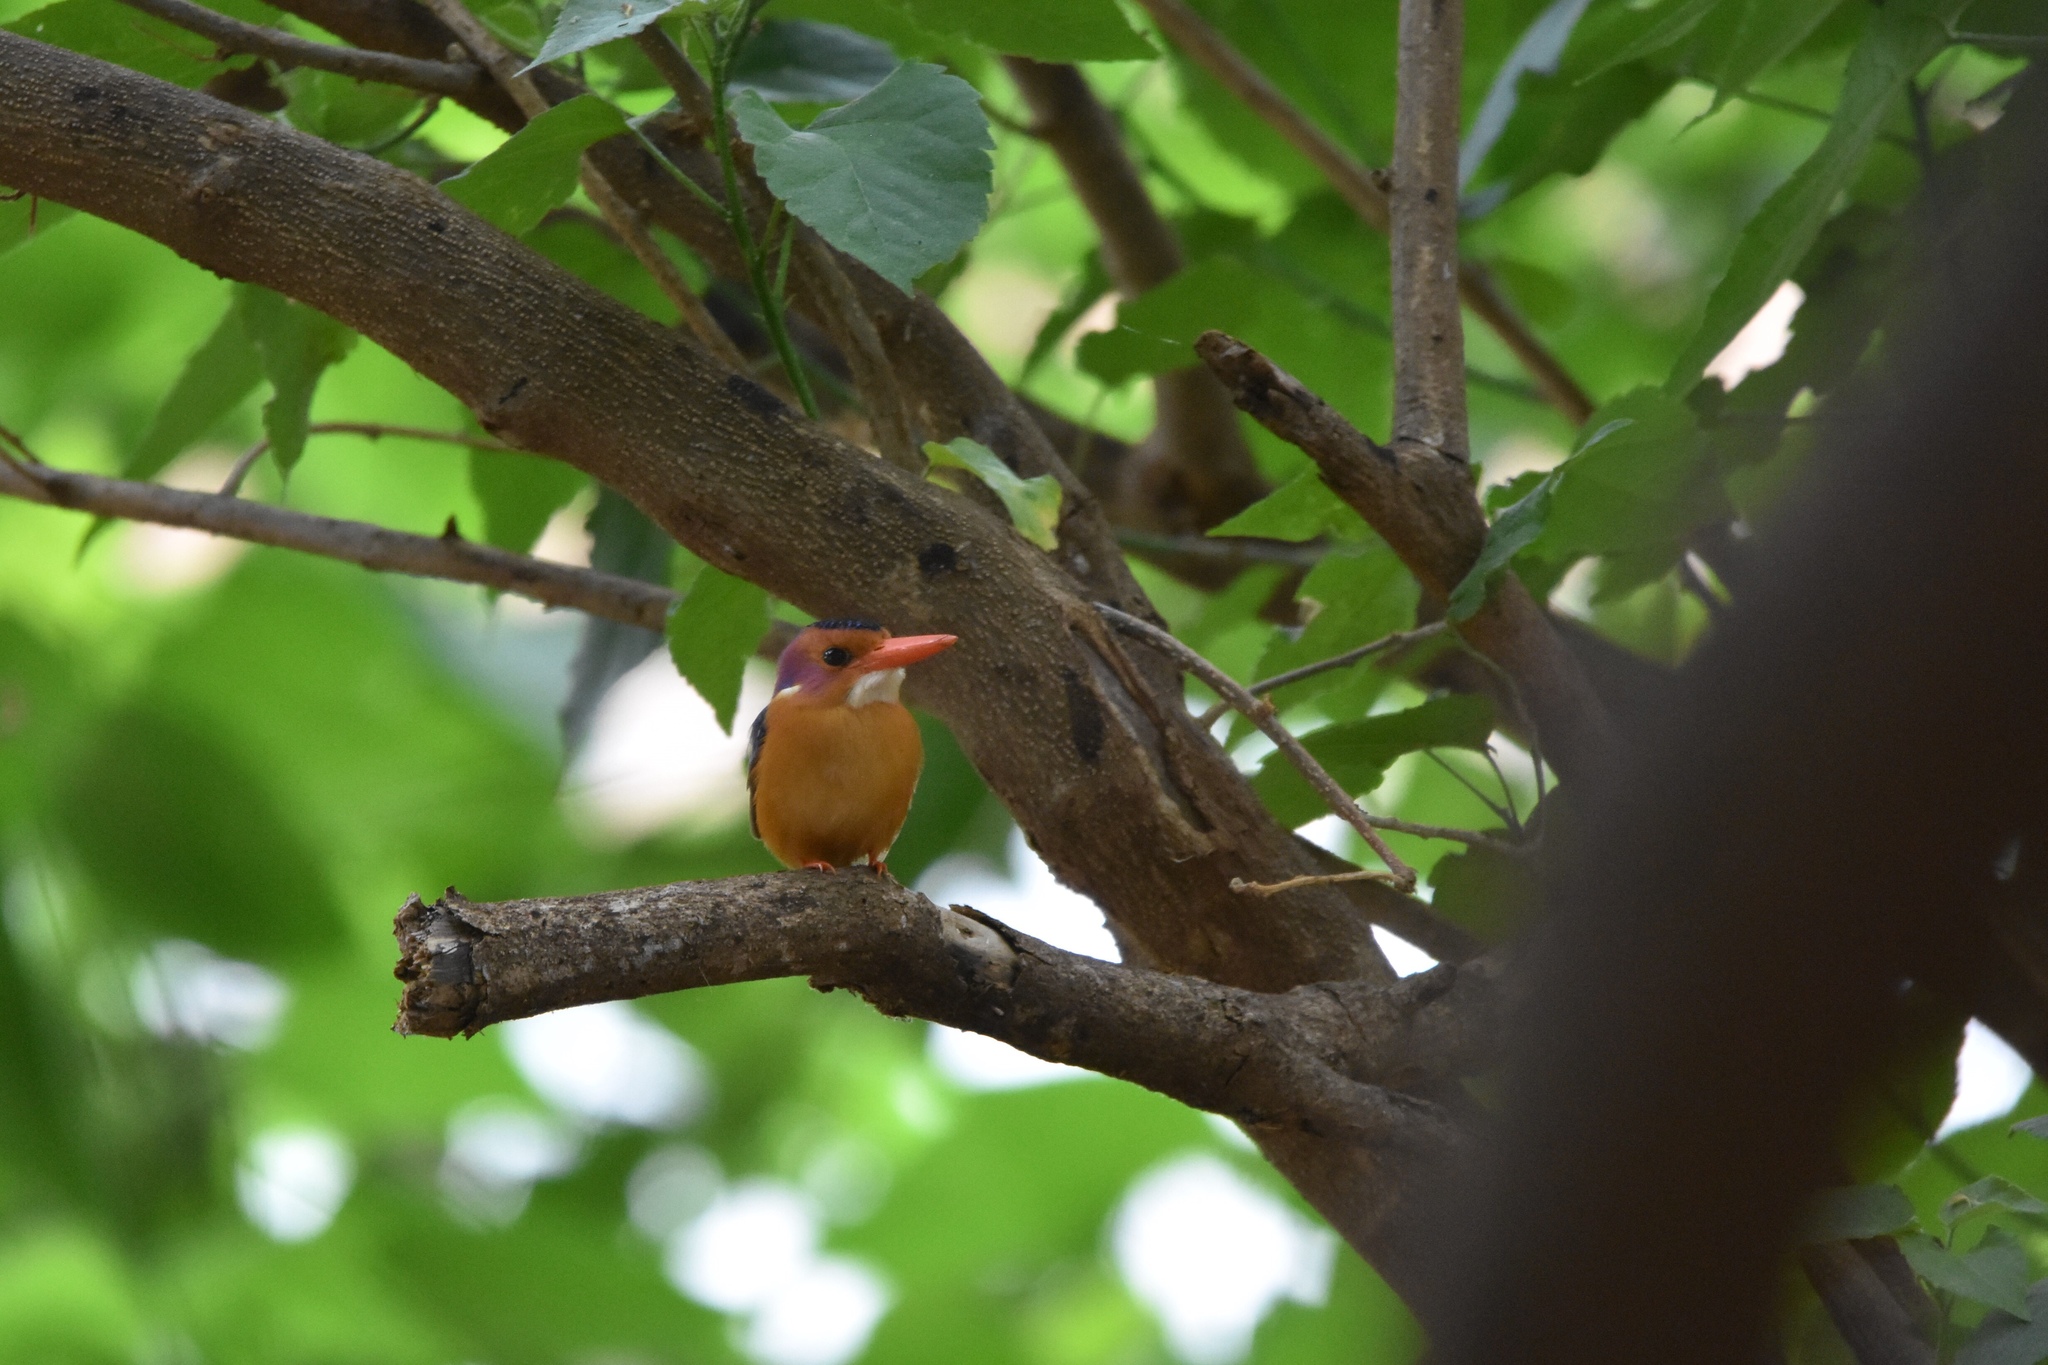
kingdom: Animalia
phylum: Chordata
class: Aves
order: Coraciiformes
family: Alcedinidae
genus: Ispidina
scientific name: Ispidina picta
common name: African pygmy-kingfisher
